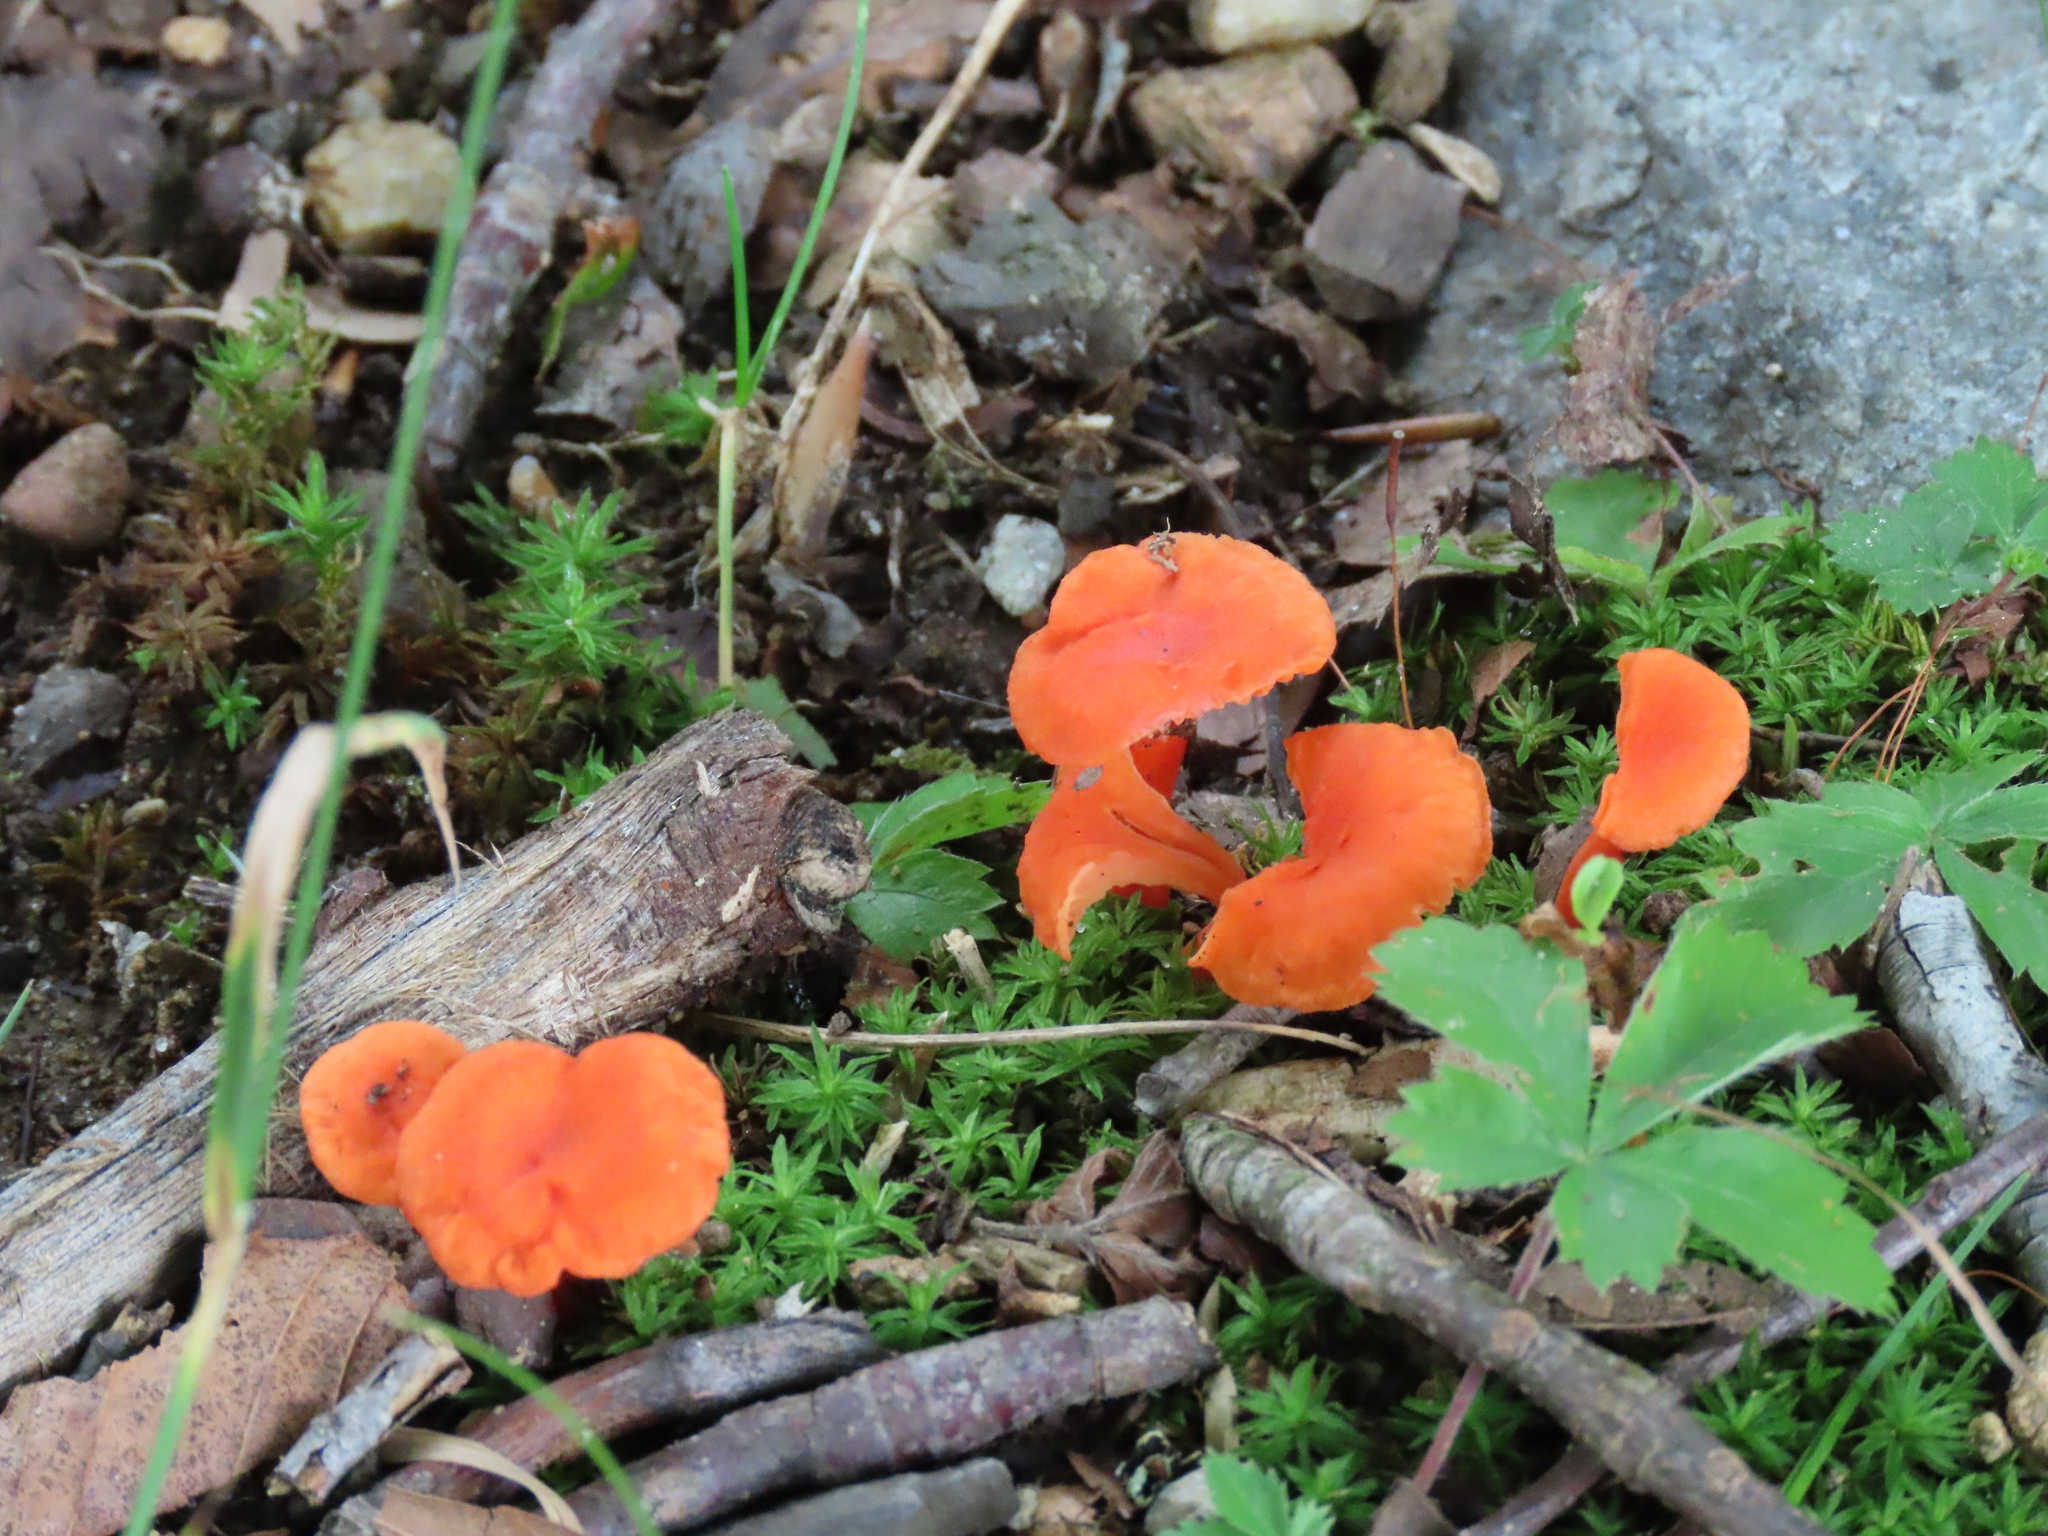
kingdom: Fungi
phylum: Basidiomycota
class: Agaricomycetes
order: Cantharellales
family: Hydnaceae
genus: Cantharellus
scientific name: Cantharellus cinnabarinus
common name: Cinnabar chanterelle
